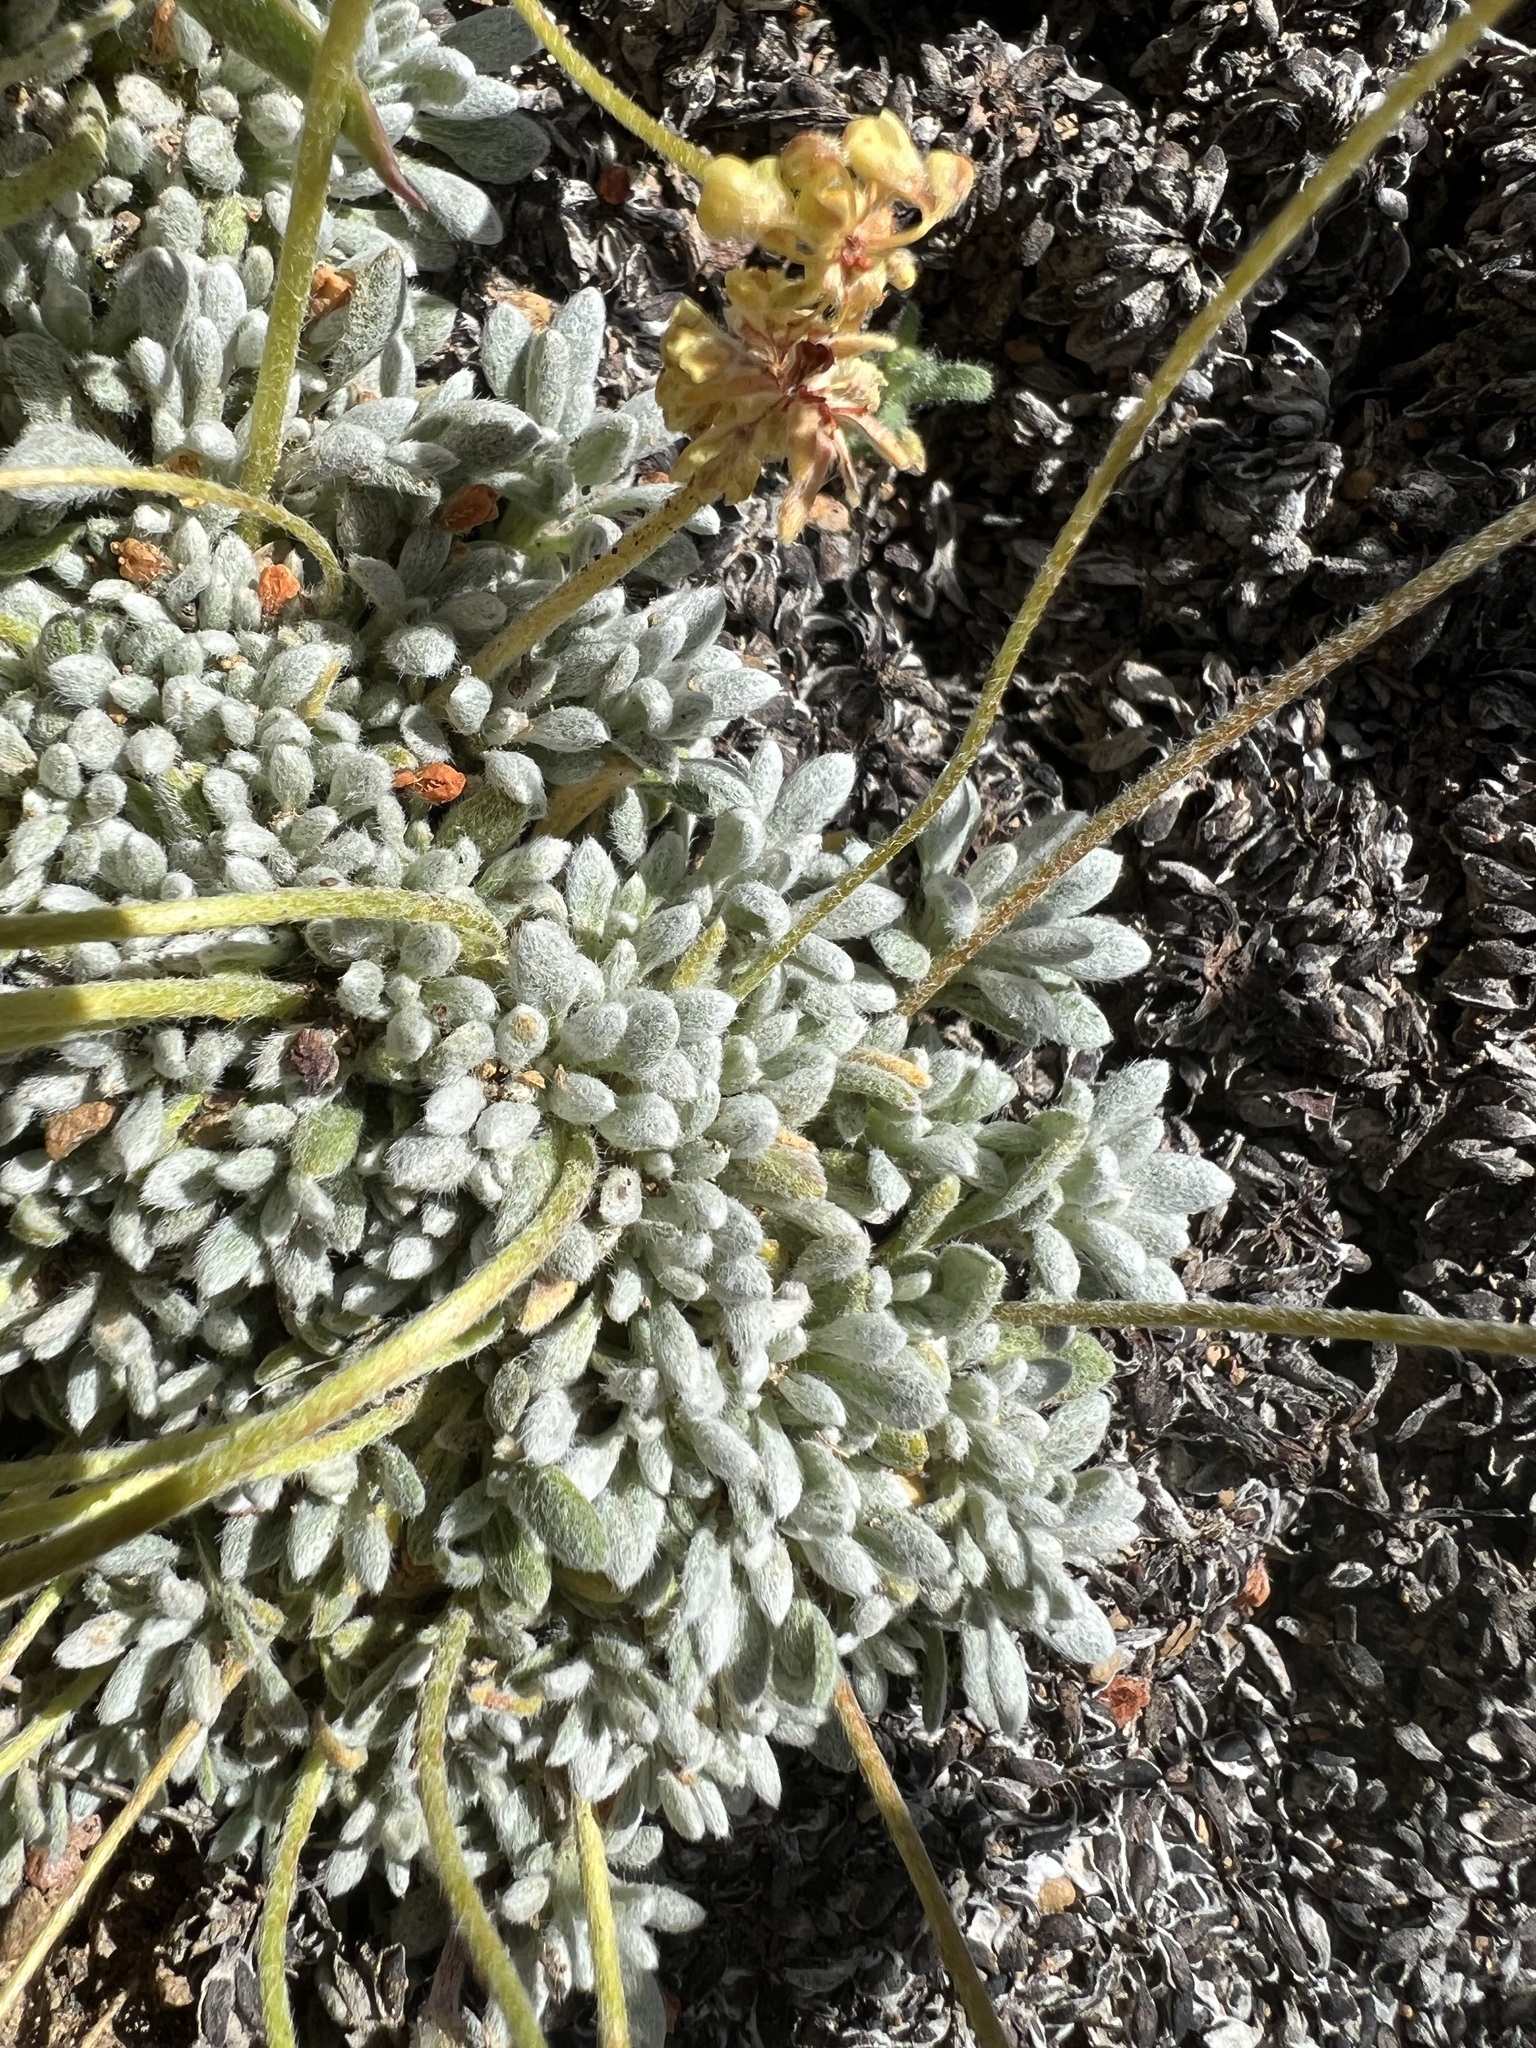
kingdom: Plantae
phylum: Tracheophyta
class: Magnoliopsida
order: Caryophyllales
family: Polygonaceae
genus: Eriogonum
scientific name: Eriogonum caespitosum
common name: Matted wild buckwheat
